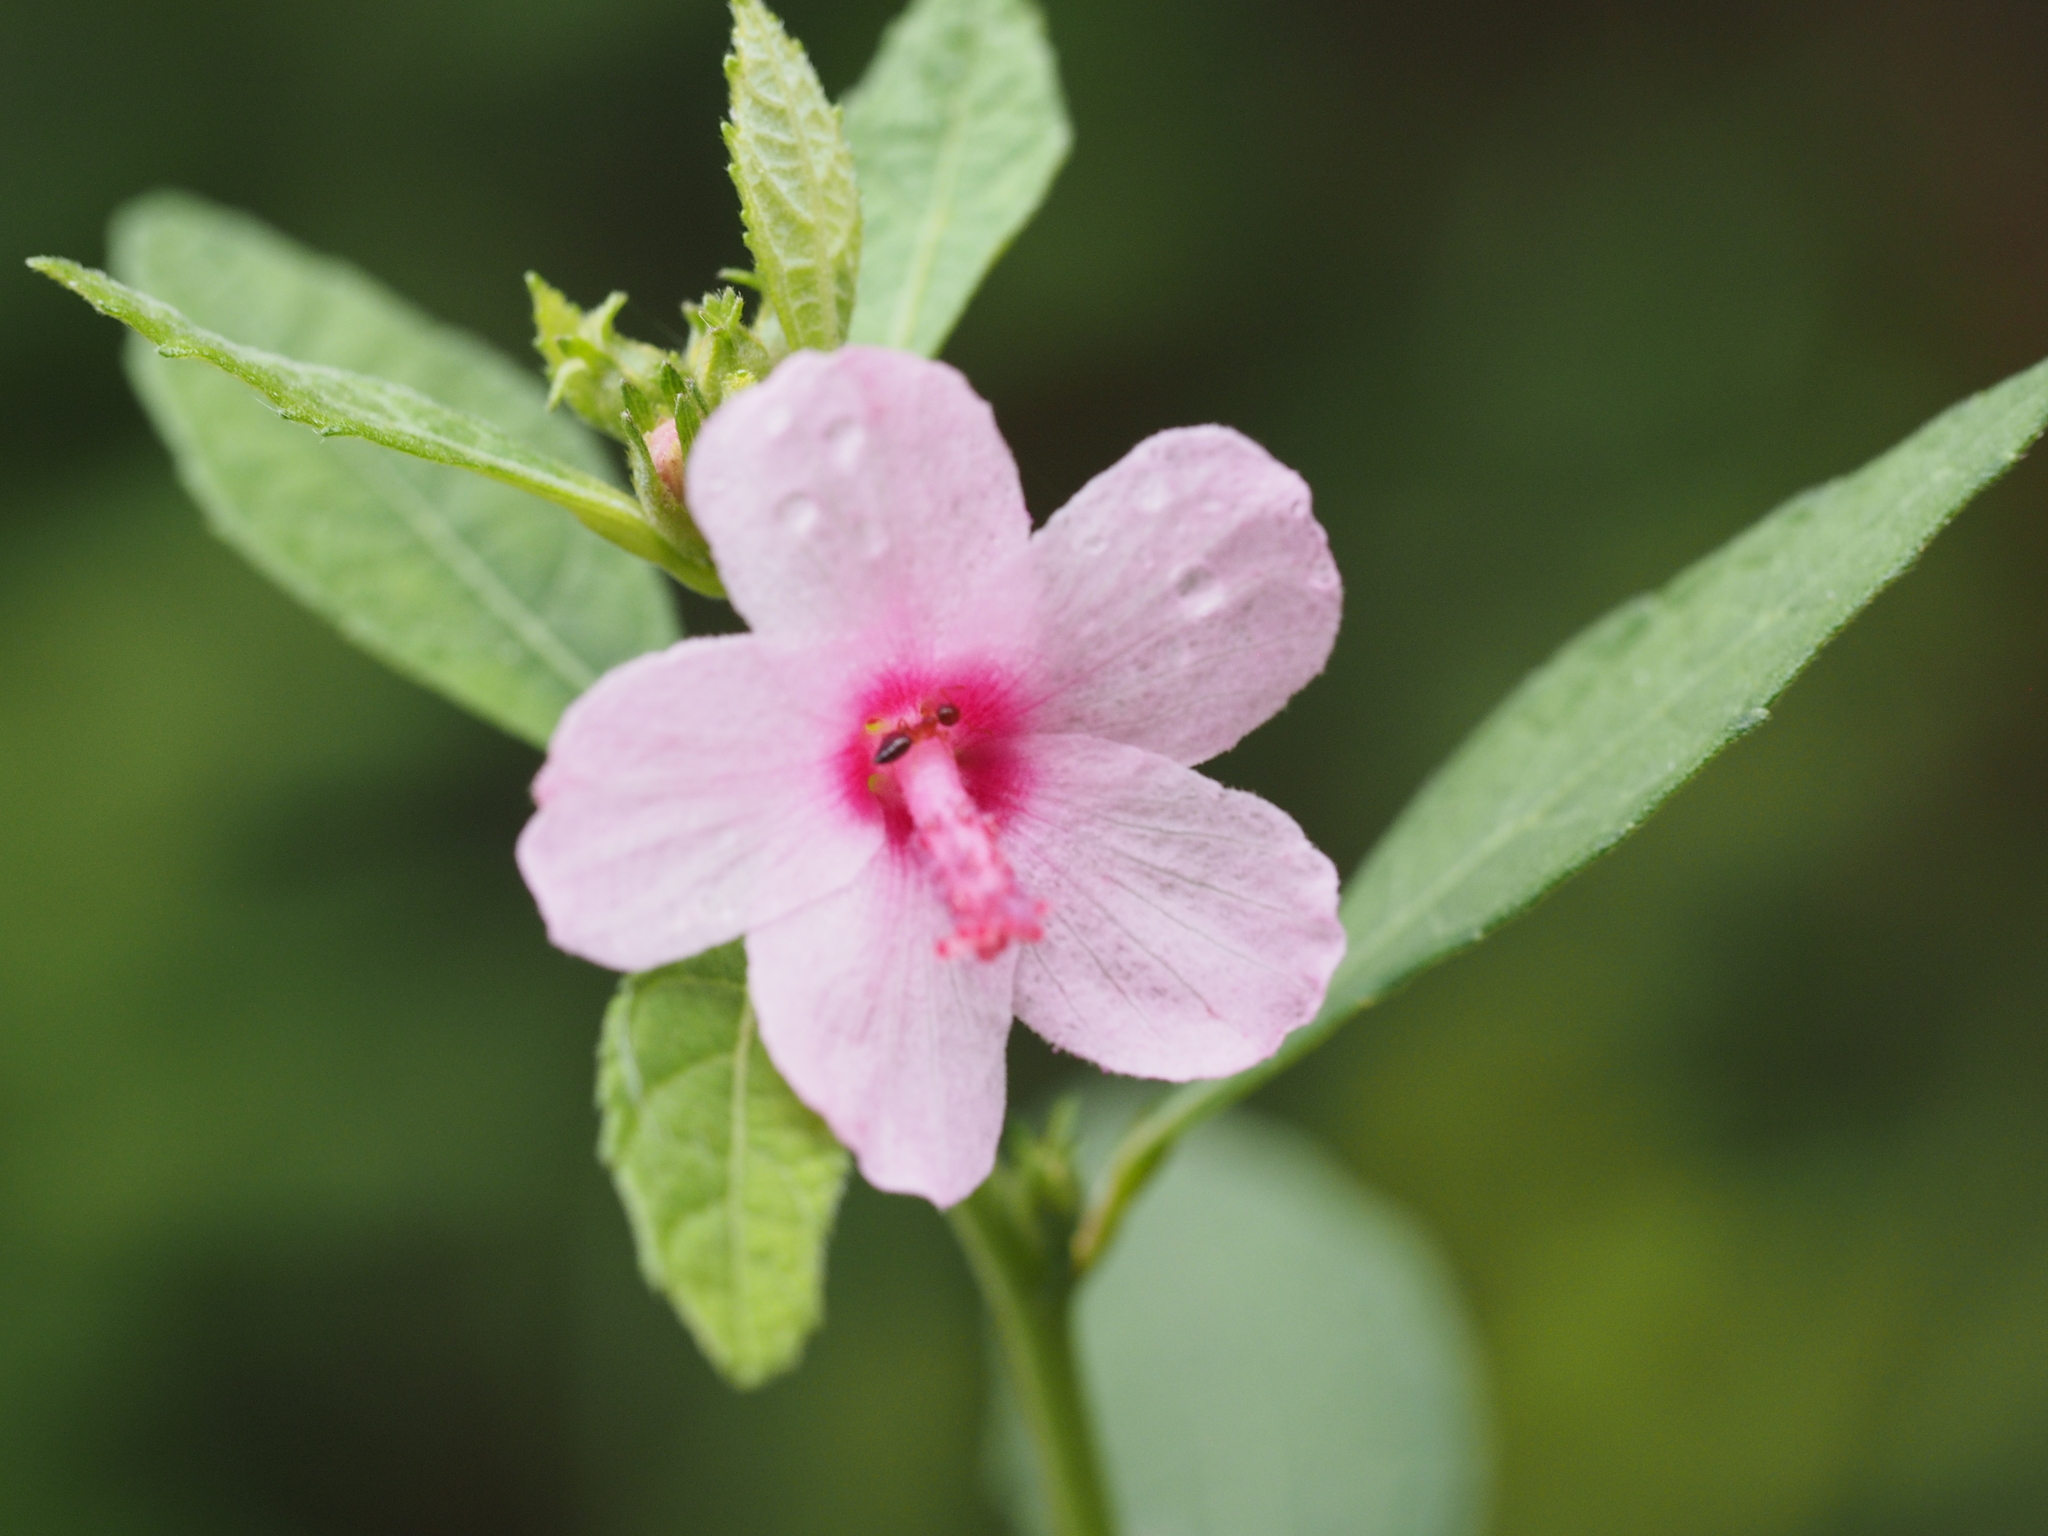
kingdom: Plantae
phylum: Tracheophyta
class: Magnoliopsida
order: Malvales
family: Malvaceae
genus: Urena
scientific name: Urena lobata
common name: Caesarweed
